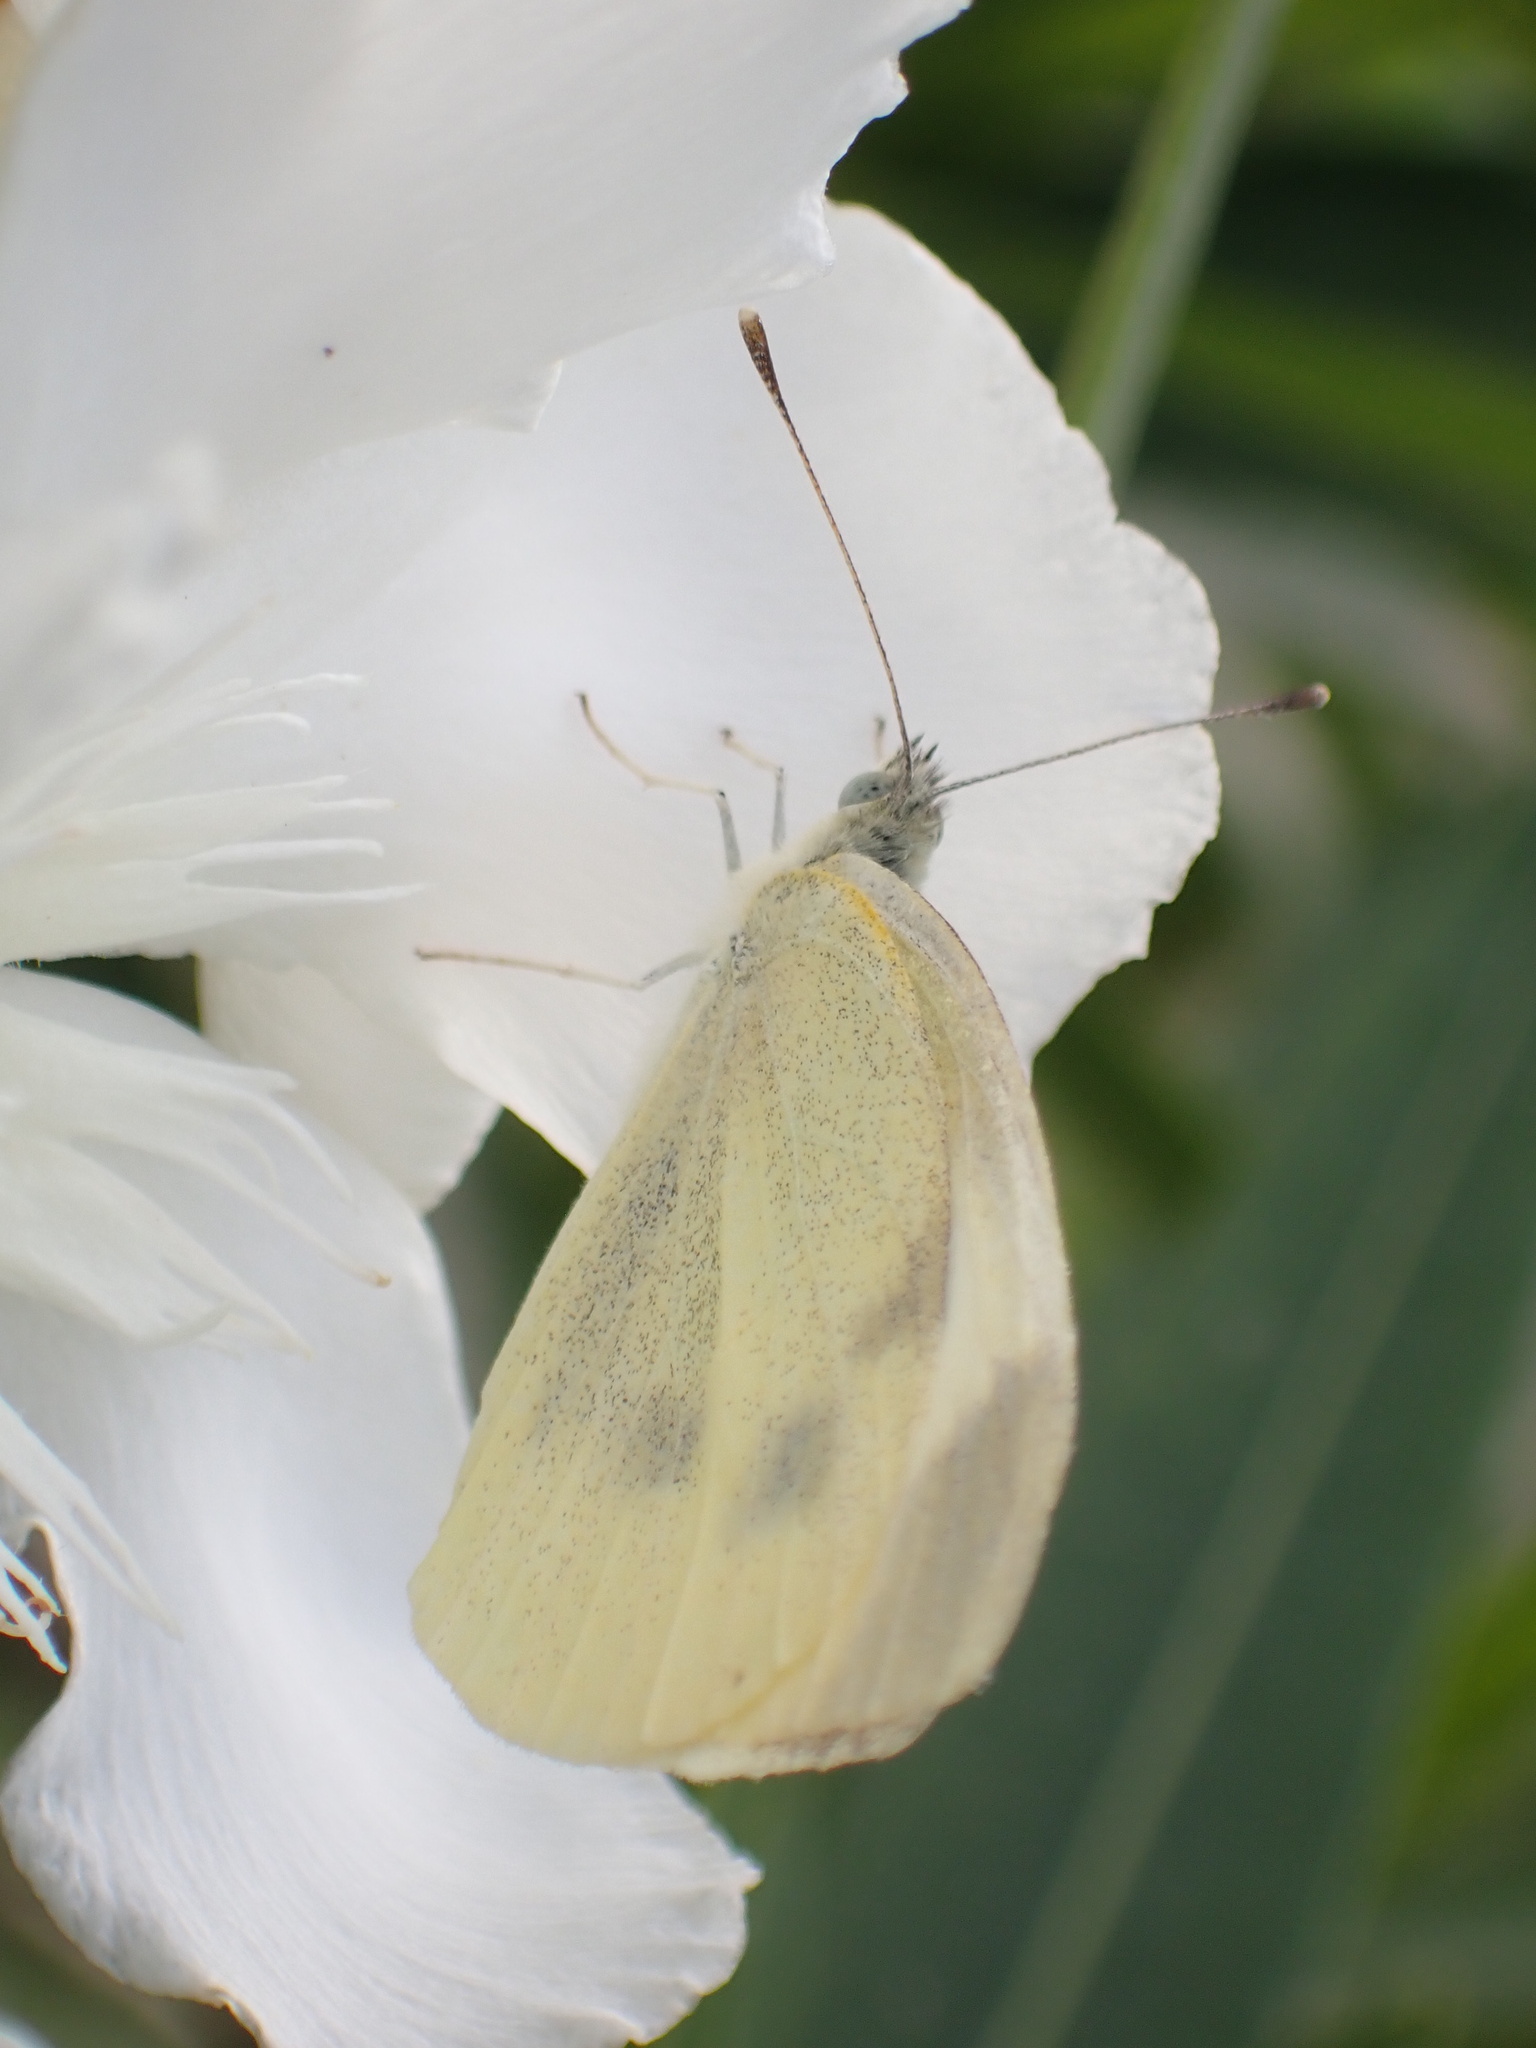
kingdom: Animalia
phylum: Arthropoda
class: Insecta
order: Lepidoptera
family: Pieridae
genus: Pieris
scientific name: Pieris brassicae
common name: Large white
